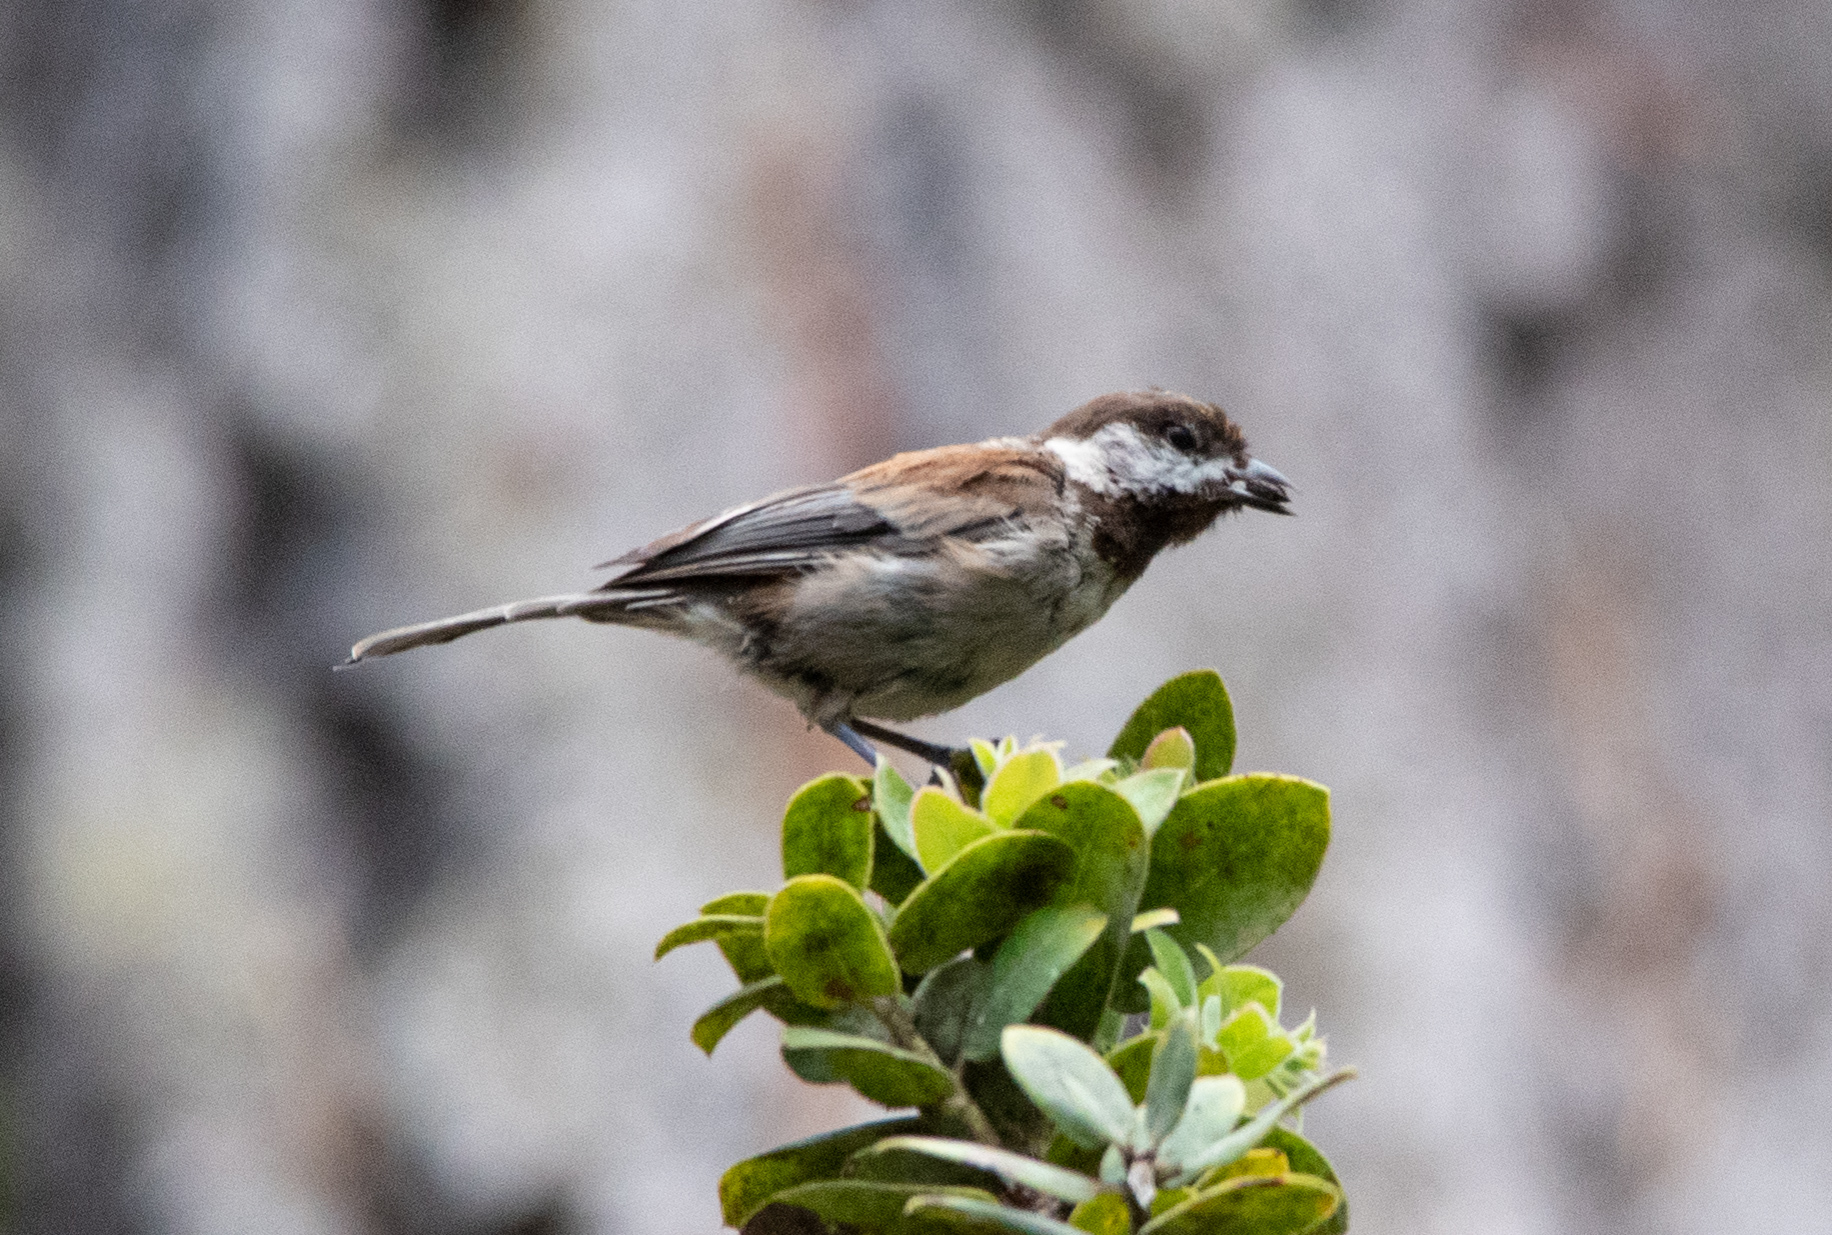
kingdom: Animalia
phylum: Chordata
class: Aves
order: Passeriformes
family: Paridae
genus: Poecile
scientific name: Poecile rufescens
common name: Chestnut-backed chickadee
